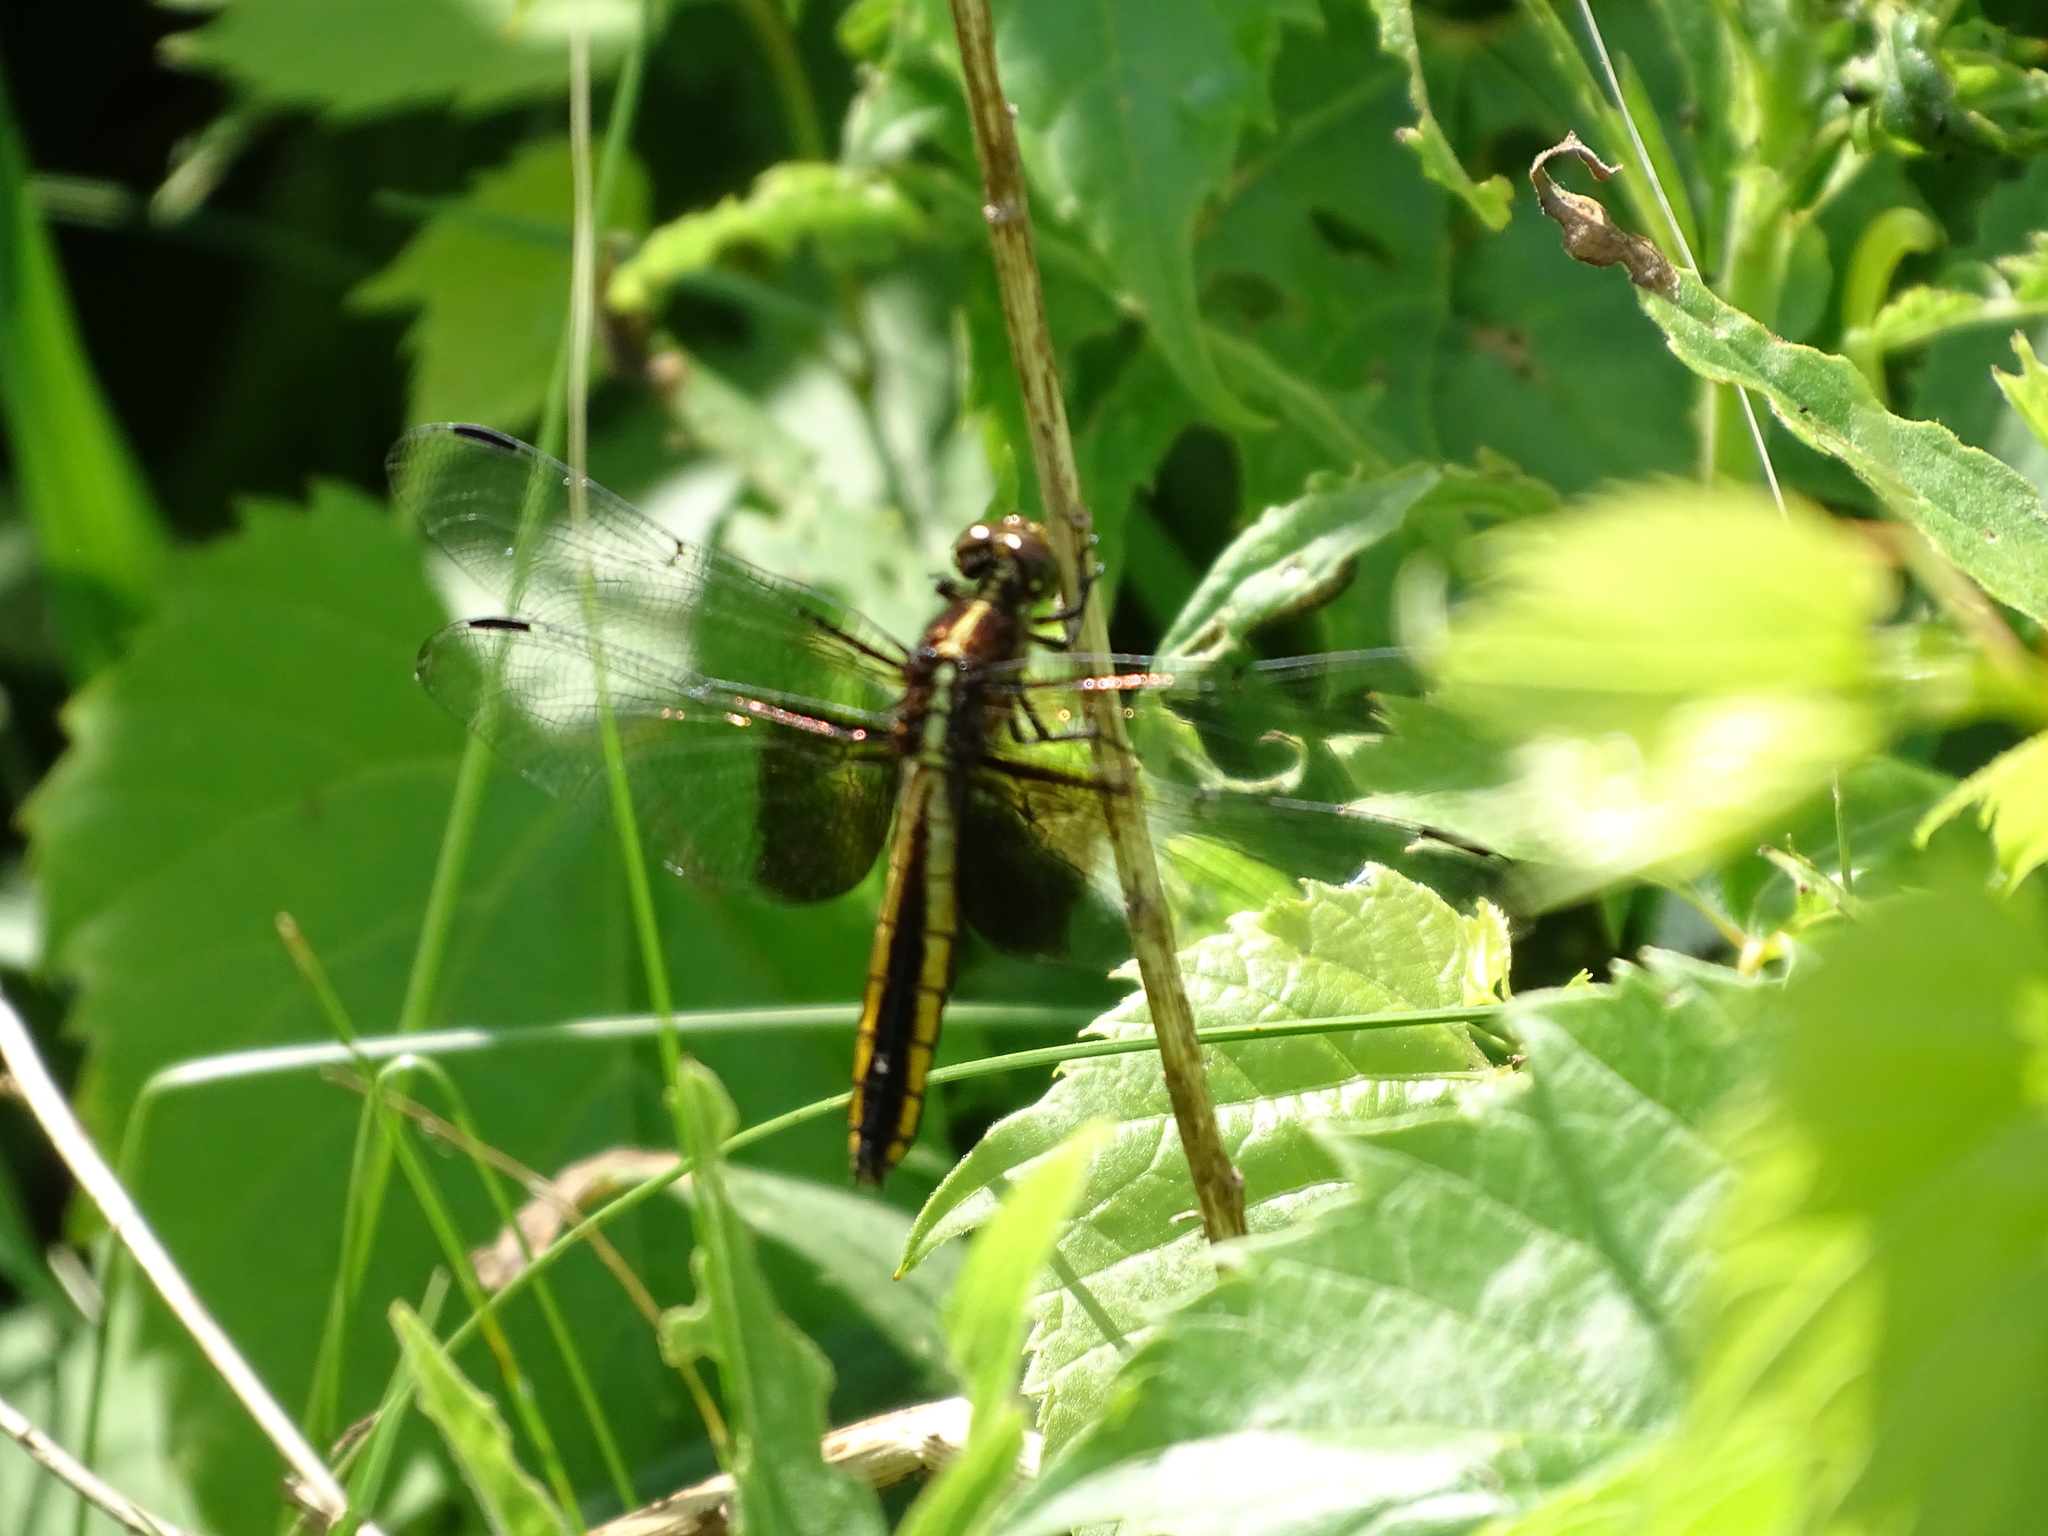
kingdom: Animalia
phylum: Arthropoda
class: Insecta
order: Odonata
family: Libellulidae
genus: Libellula
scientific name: Libellula luctuosa
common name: Widow skimmer
